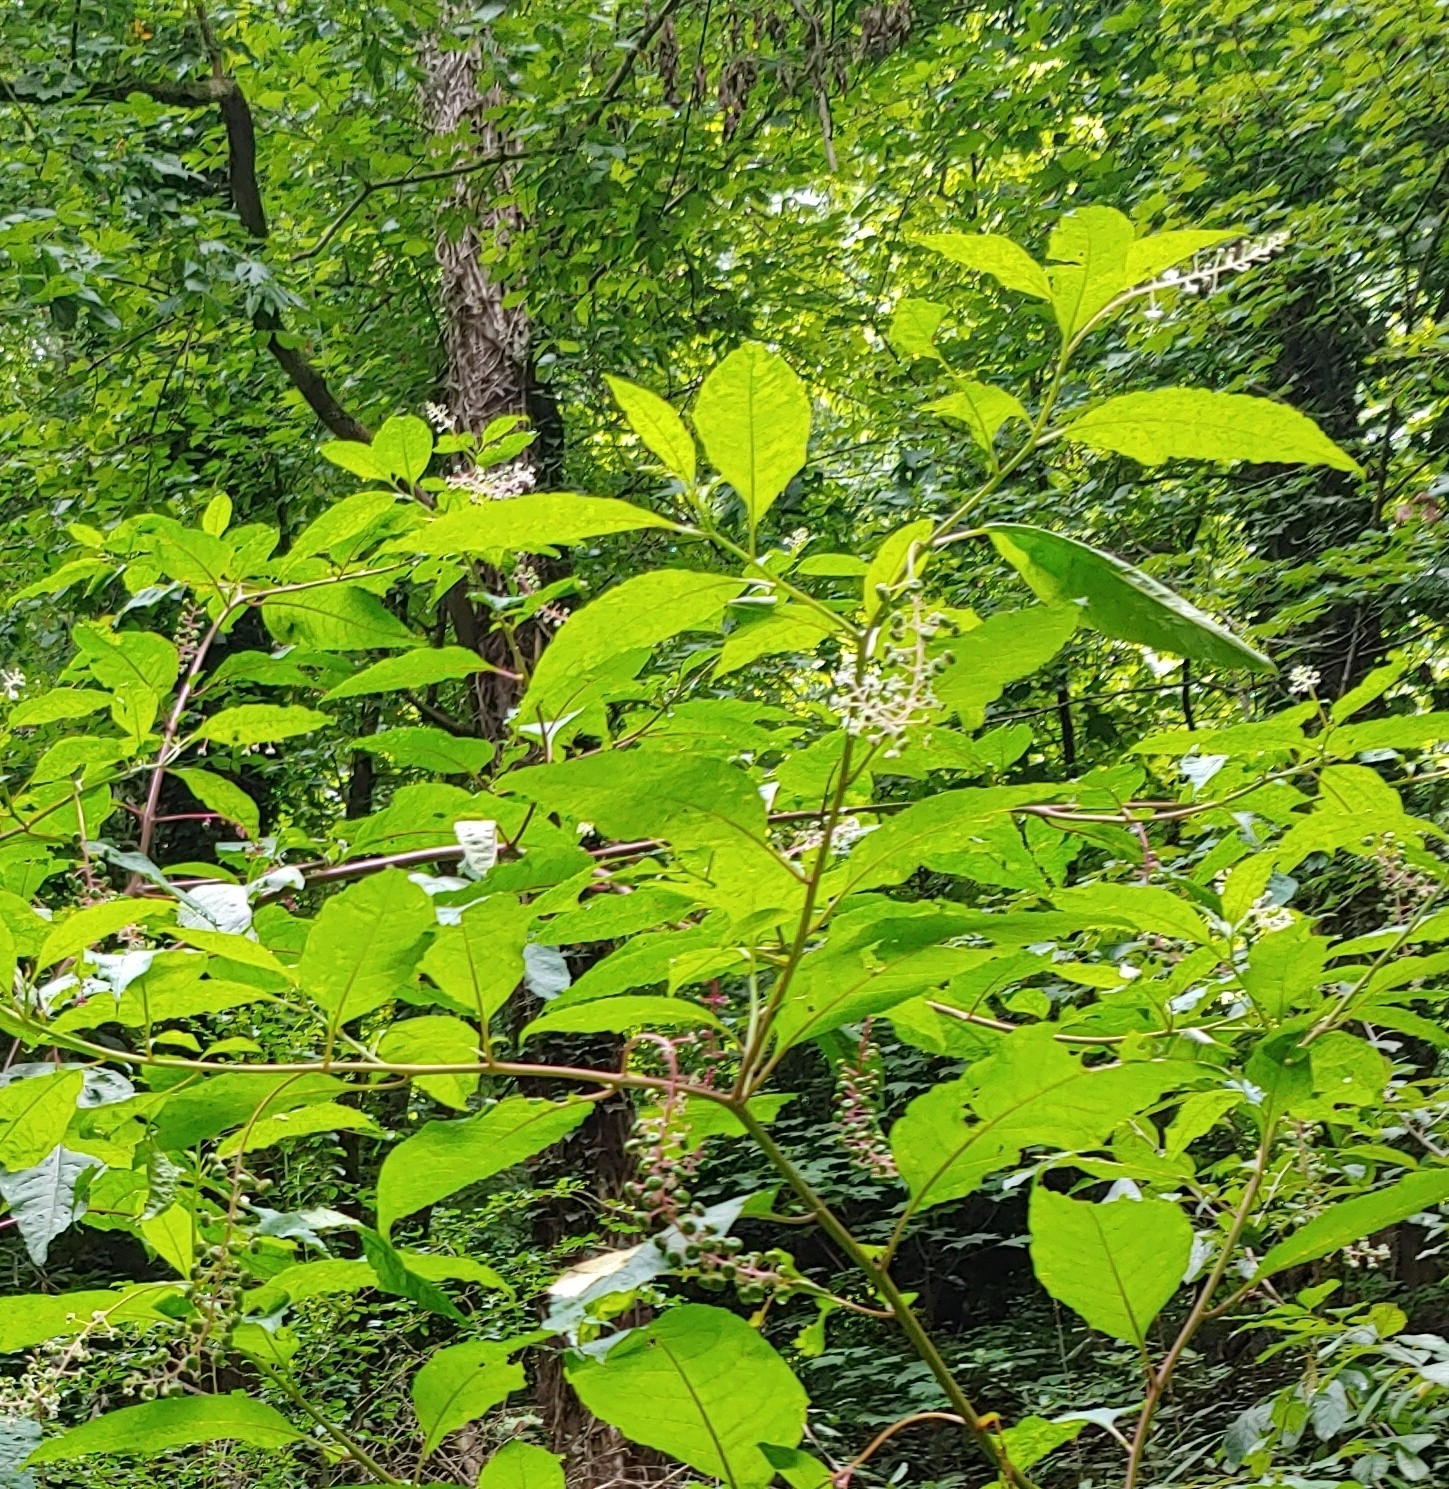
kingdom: Plantae
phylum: Tracheophyta
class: Magnoliopsida
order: Caryophyllales
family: Phytolaccaceae
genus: Phytolacca
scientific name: Phytolacca americana
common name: American pokeweed
